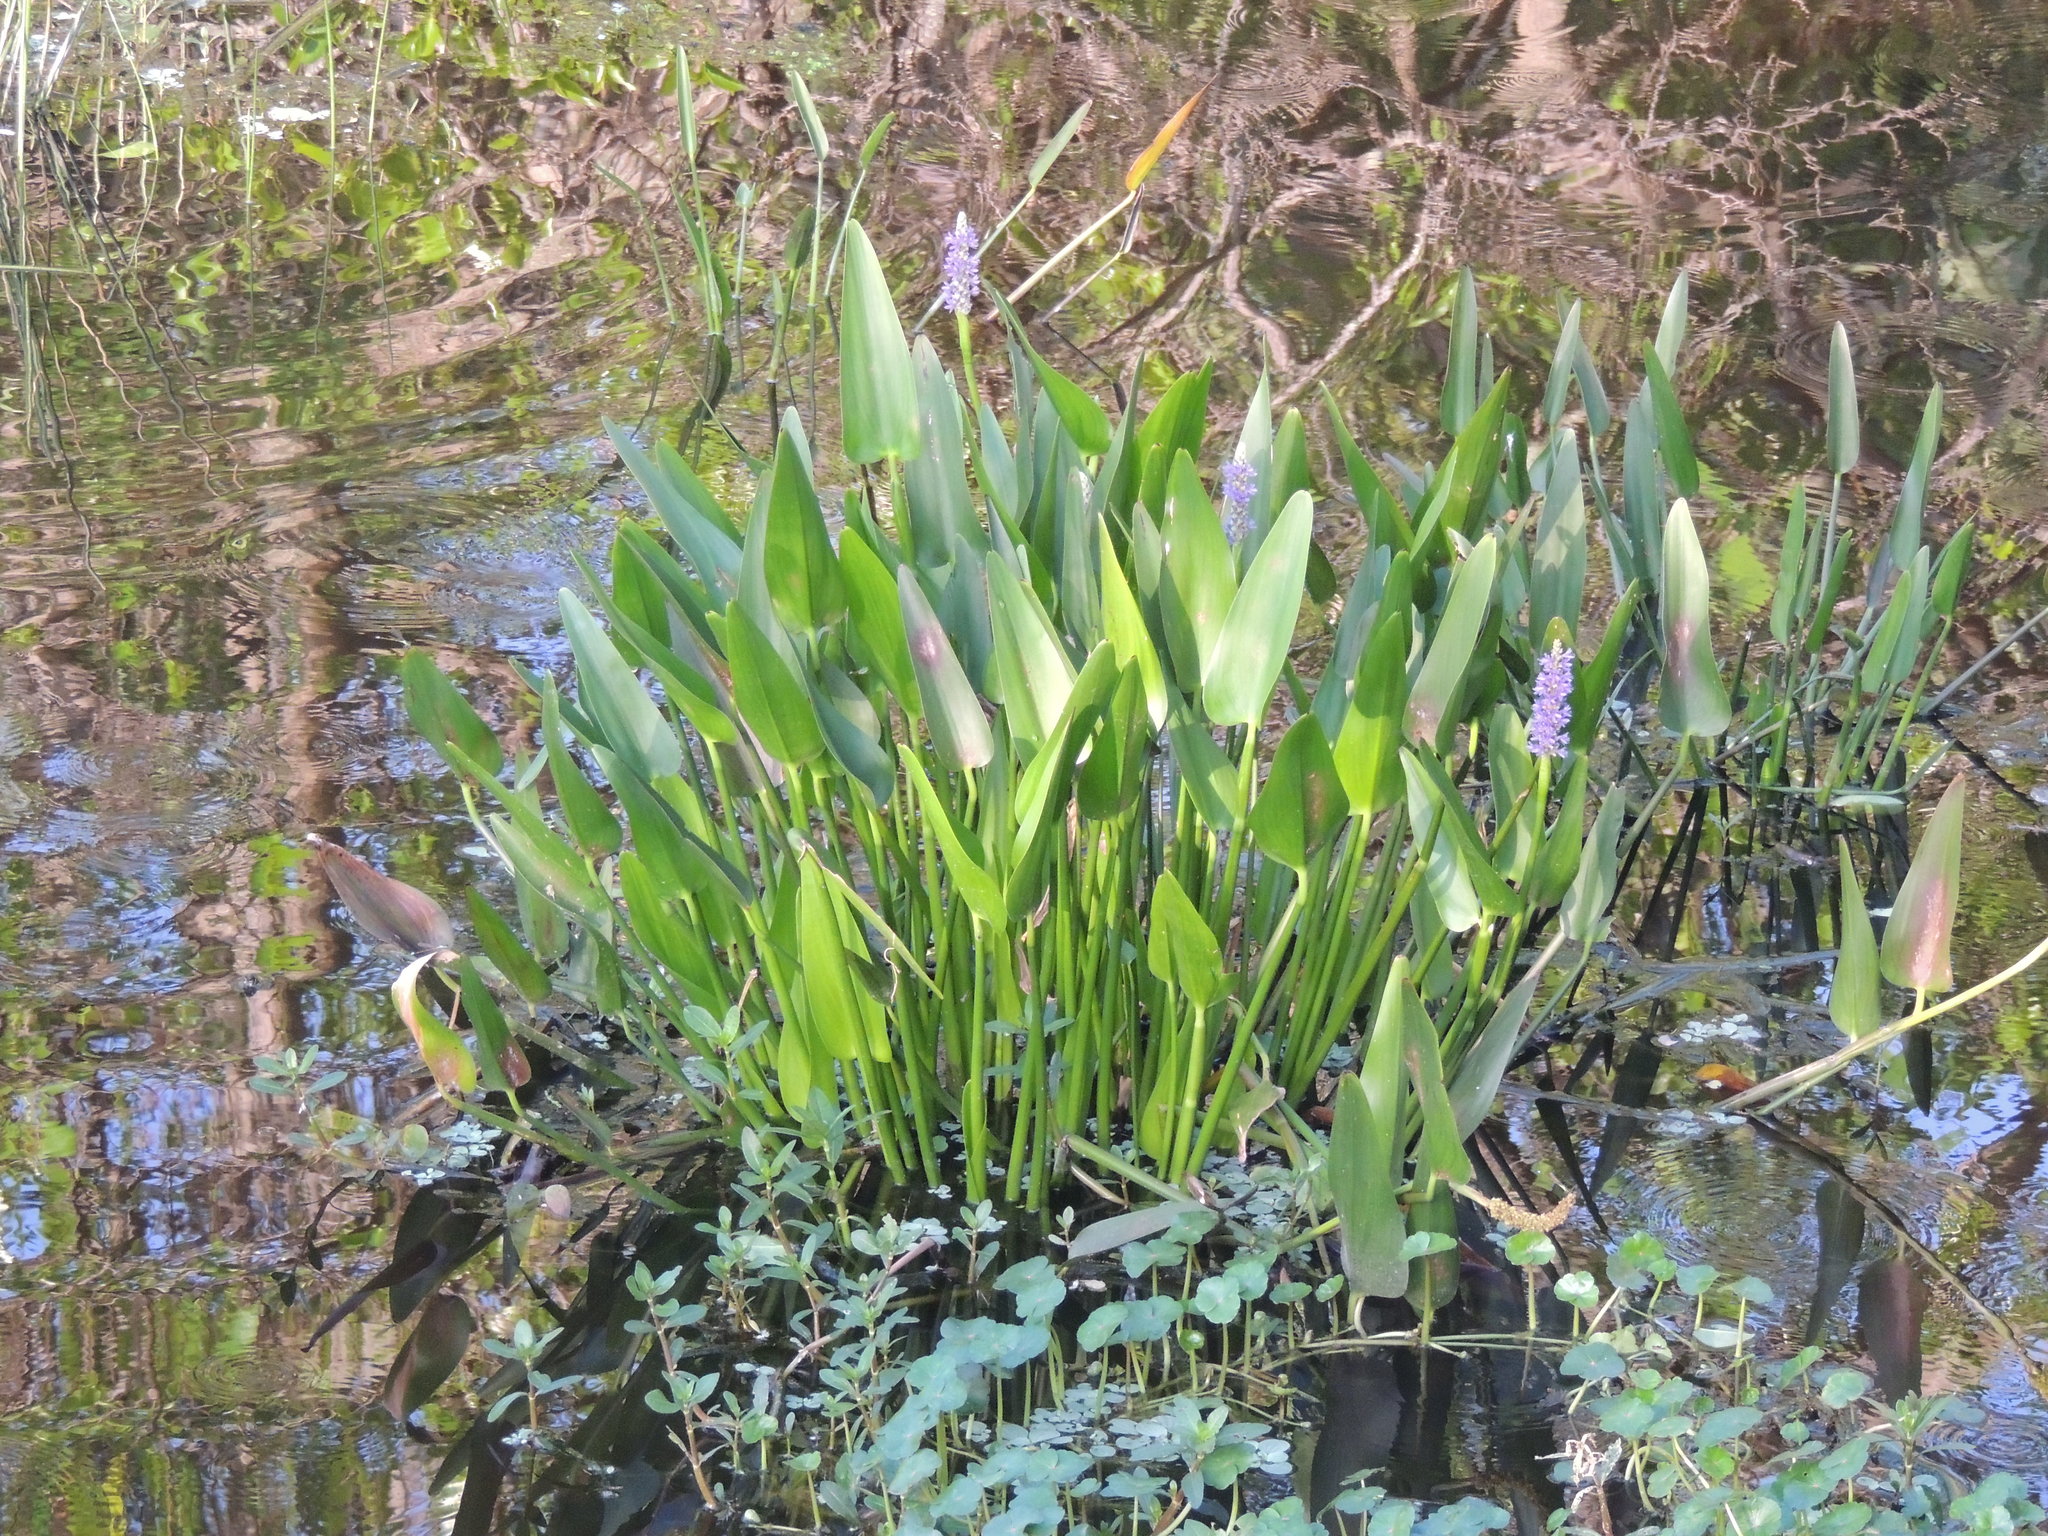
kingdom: Plantae
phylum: Tracheophyta
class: Liliopsida
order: Commelinales
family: Pontederiaceae
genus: Pontederia
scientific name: Pontederia cordata
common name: Pickerelweed
